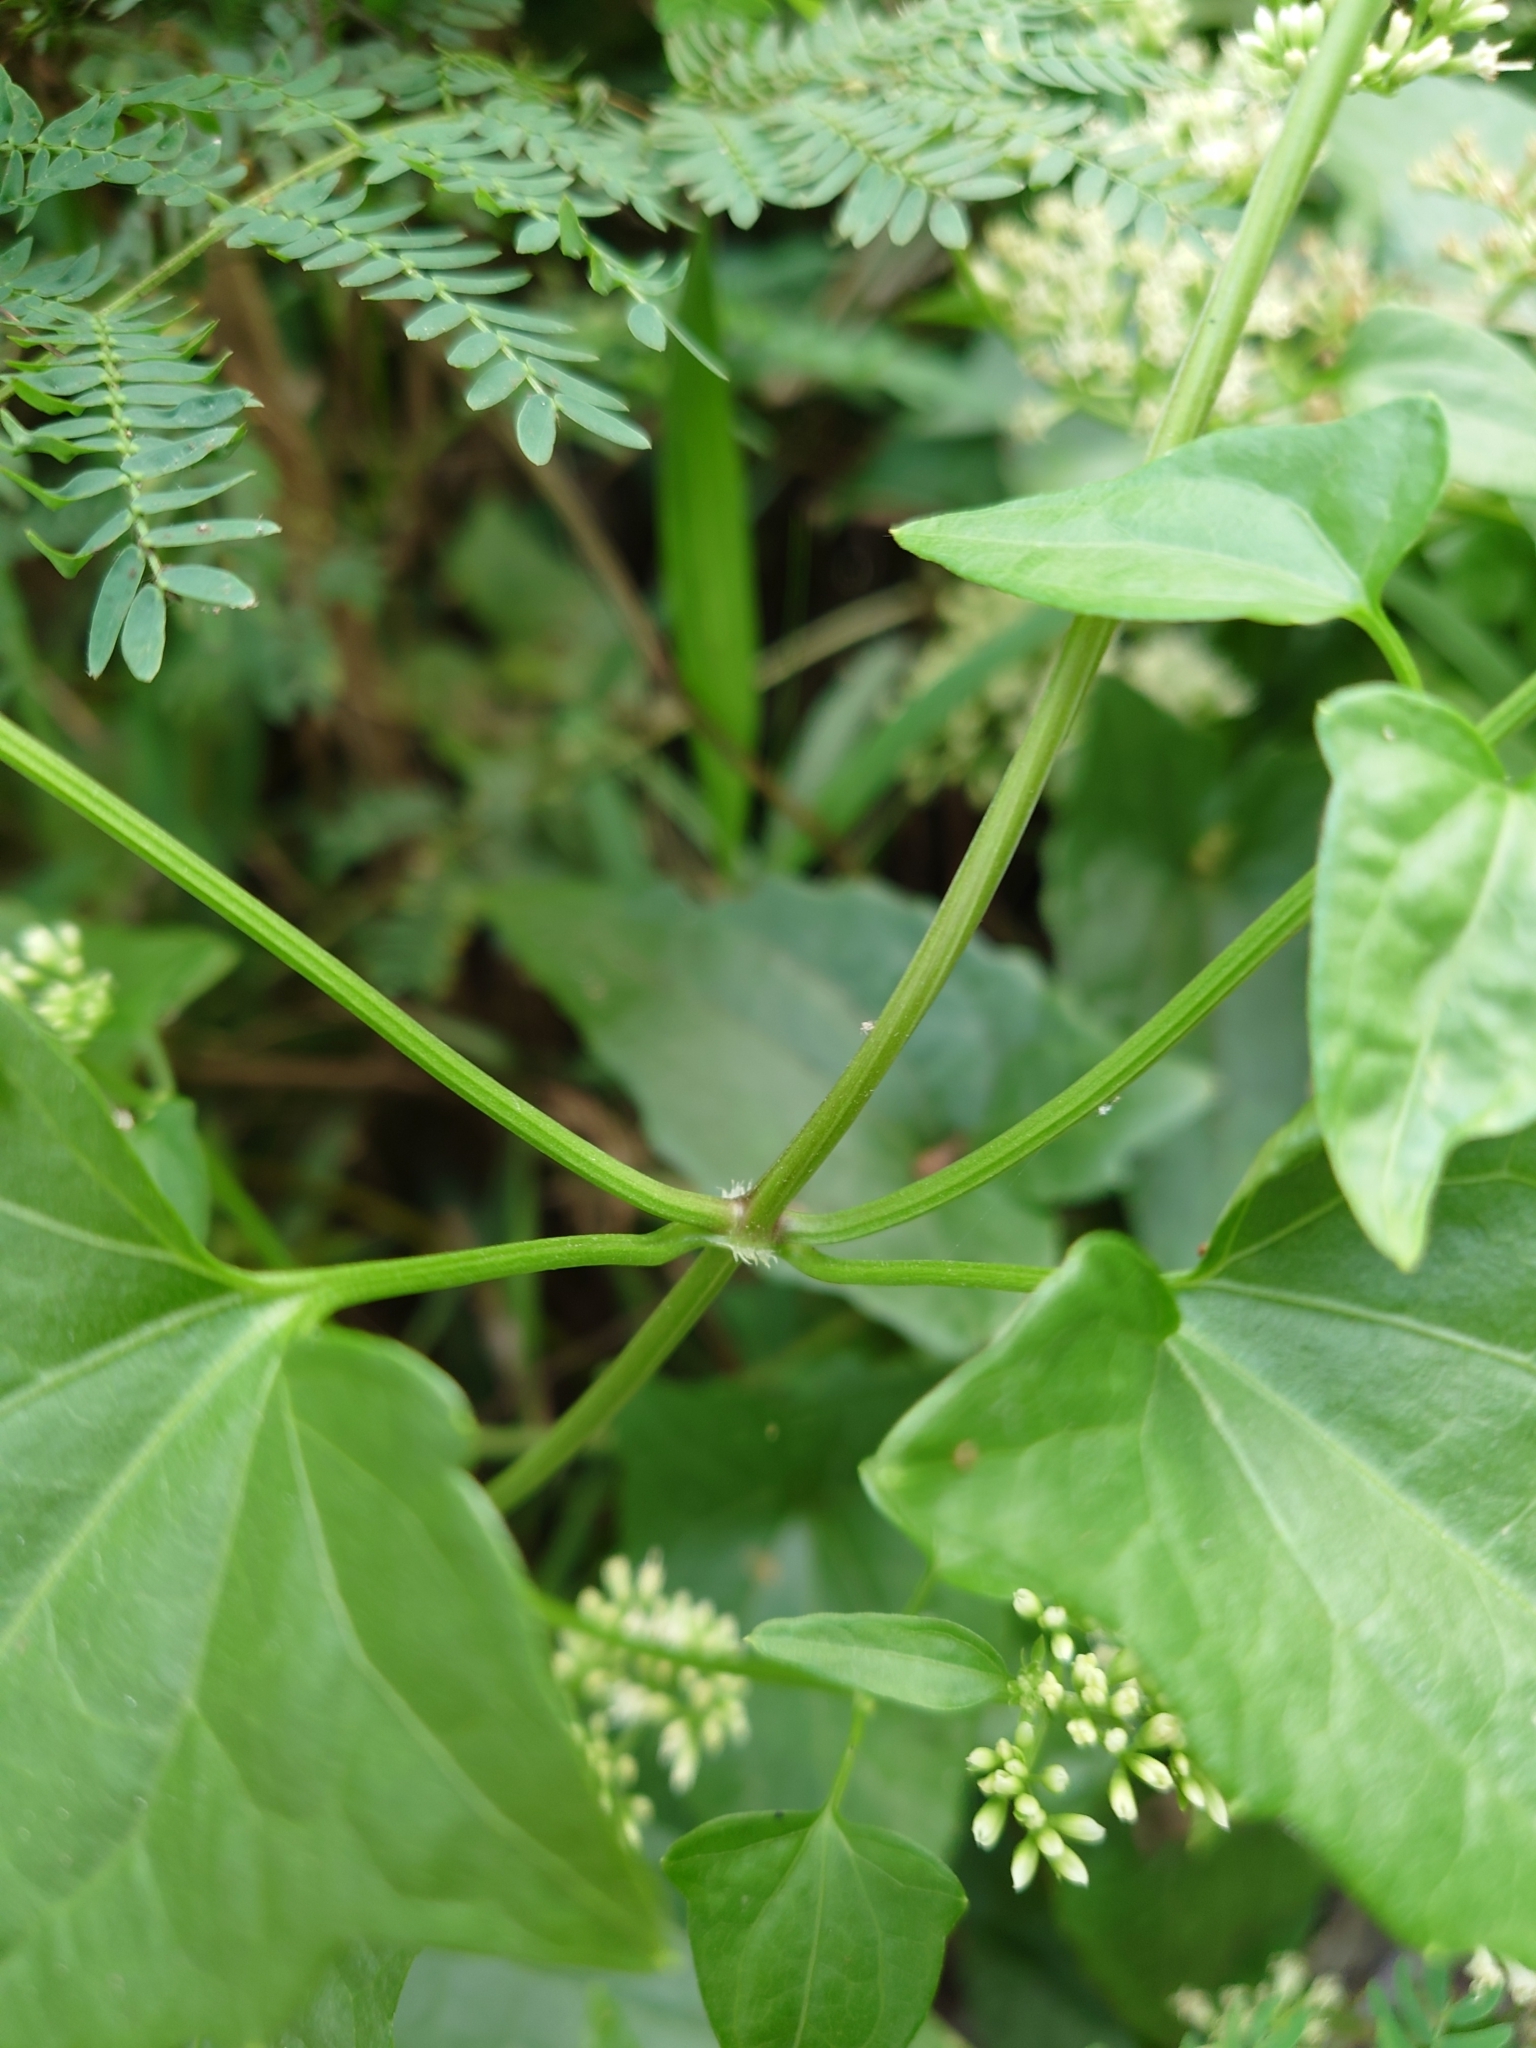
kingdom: Plantae
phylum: Tracheophyta
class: Magnoliopsida
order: Asterales
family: Asteraceae
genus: Mikania
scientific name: Mikania micrantha
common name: Mile-a-minute
